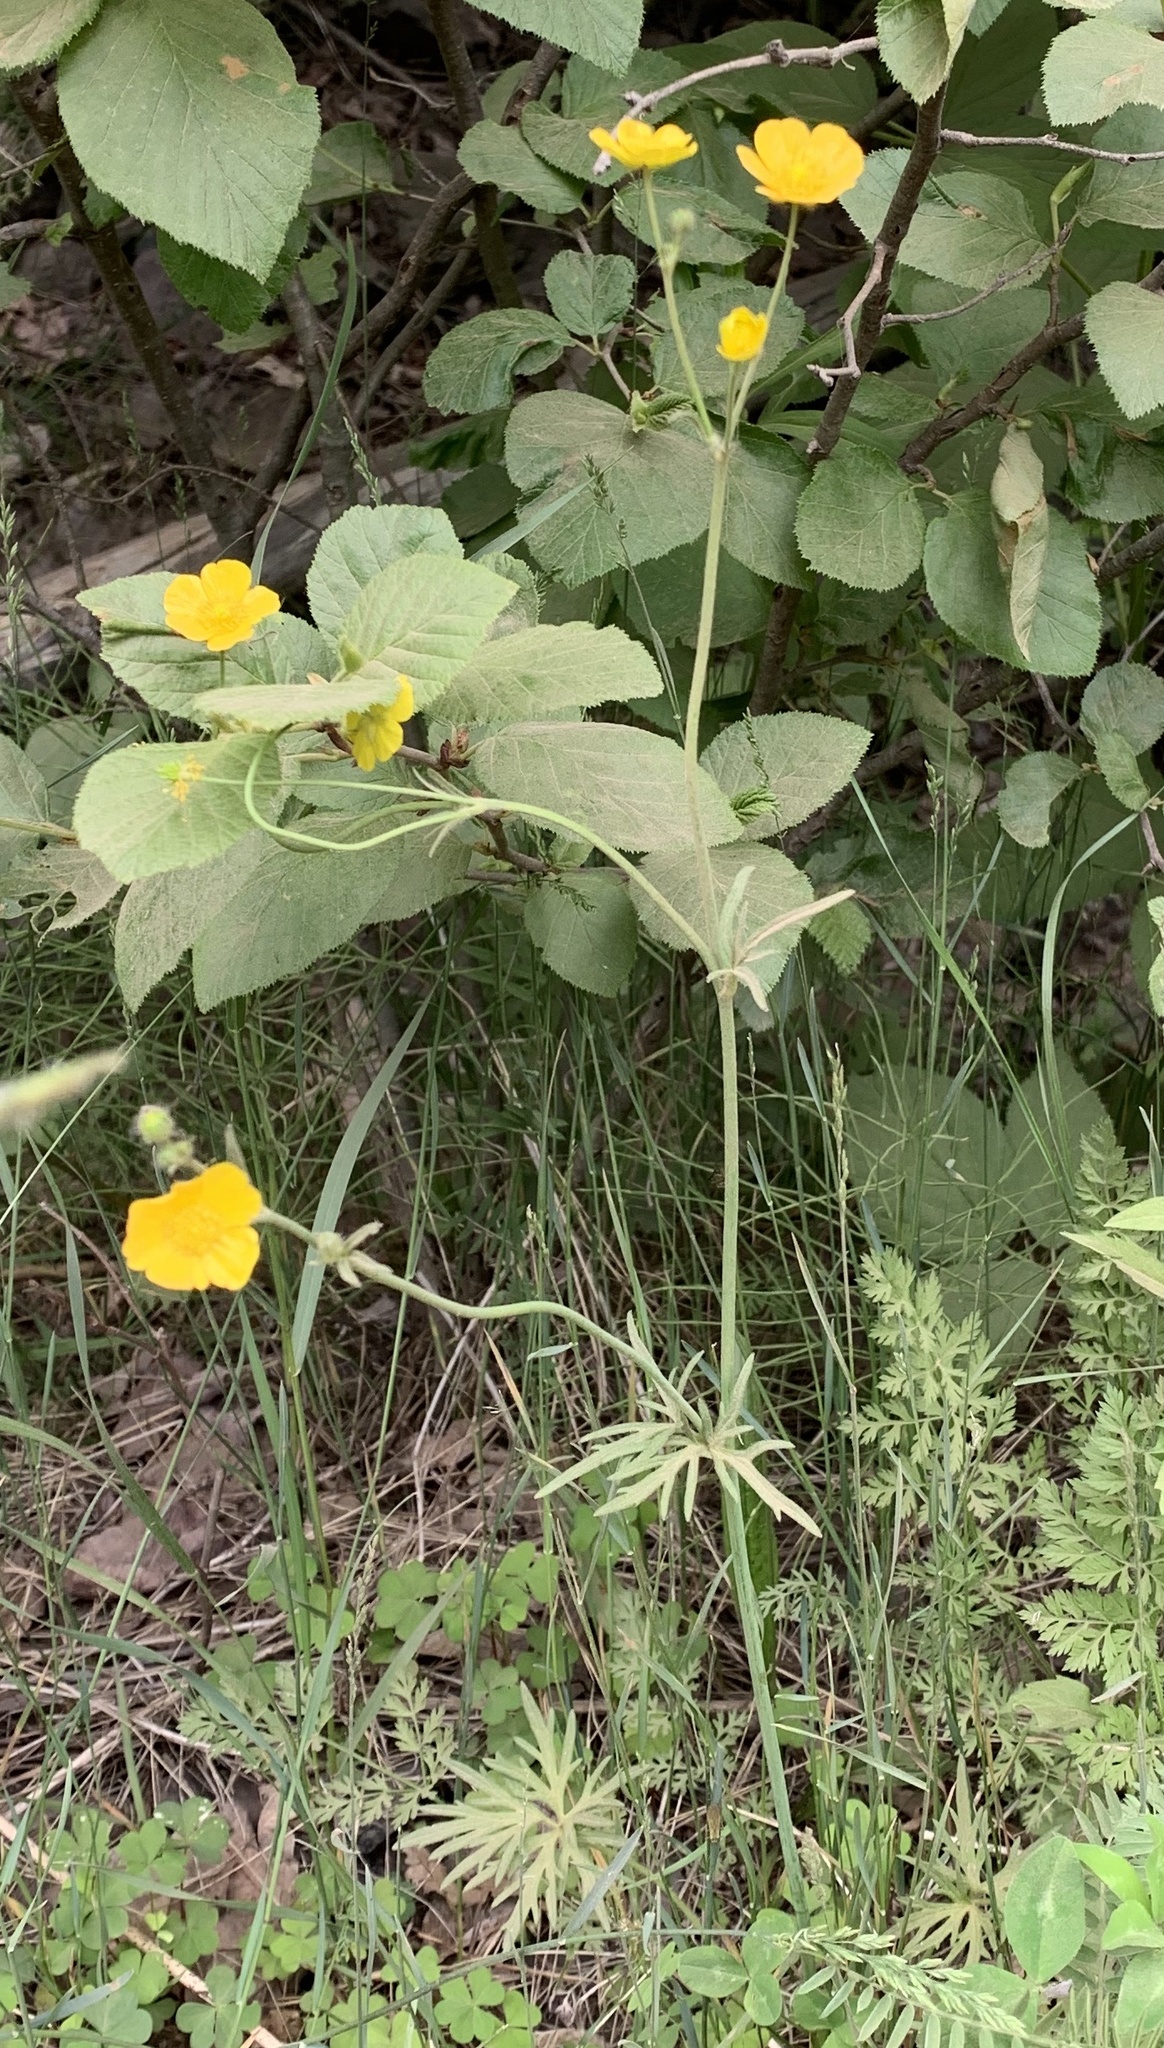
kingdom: Plantae
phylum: Tracheophyta
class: Magnoliopsida
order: Ranunculales
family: Ranunculaceae
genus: Ranunculus
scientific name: Ranunculus acris
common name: Meadow buttercup
